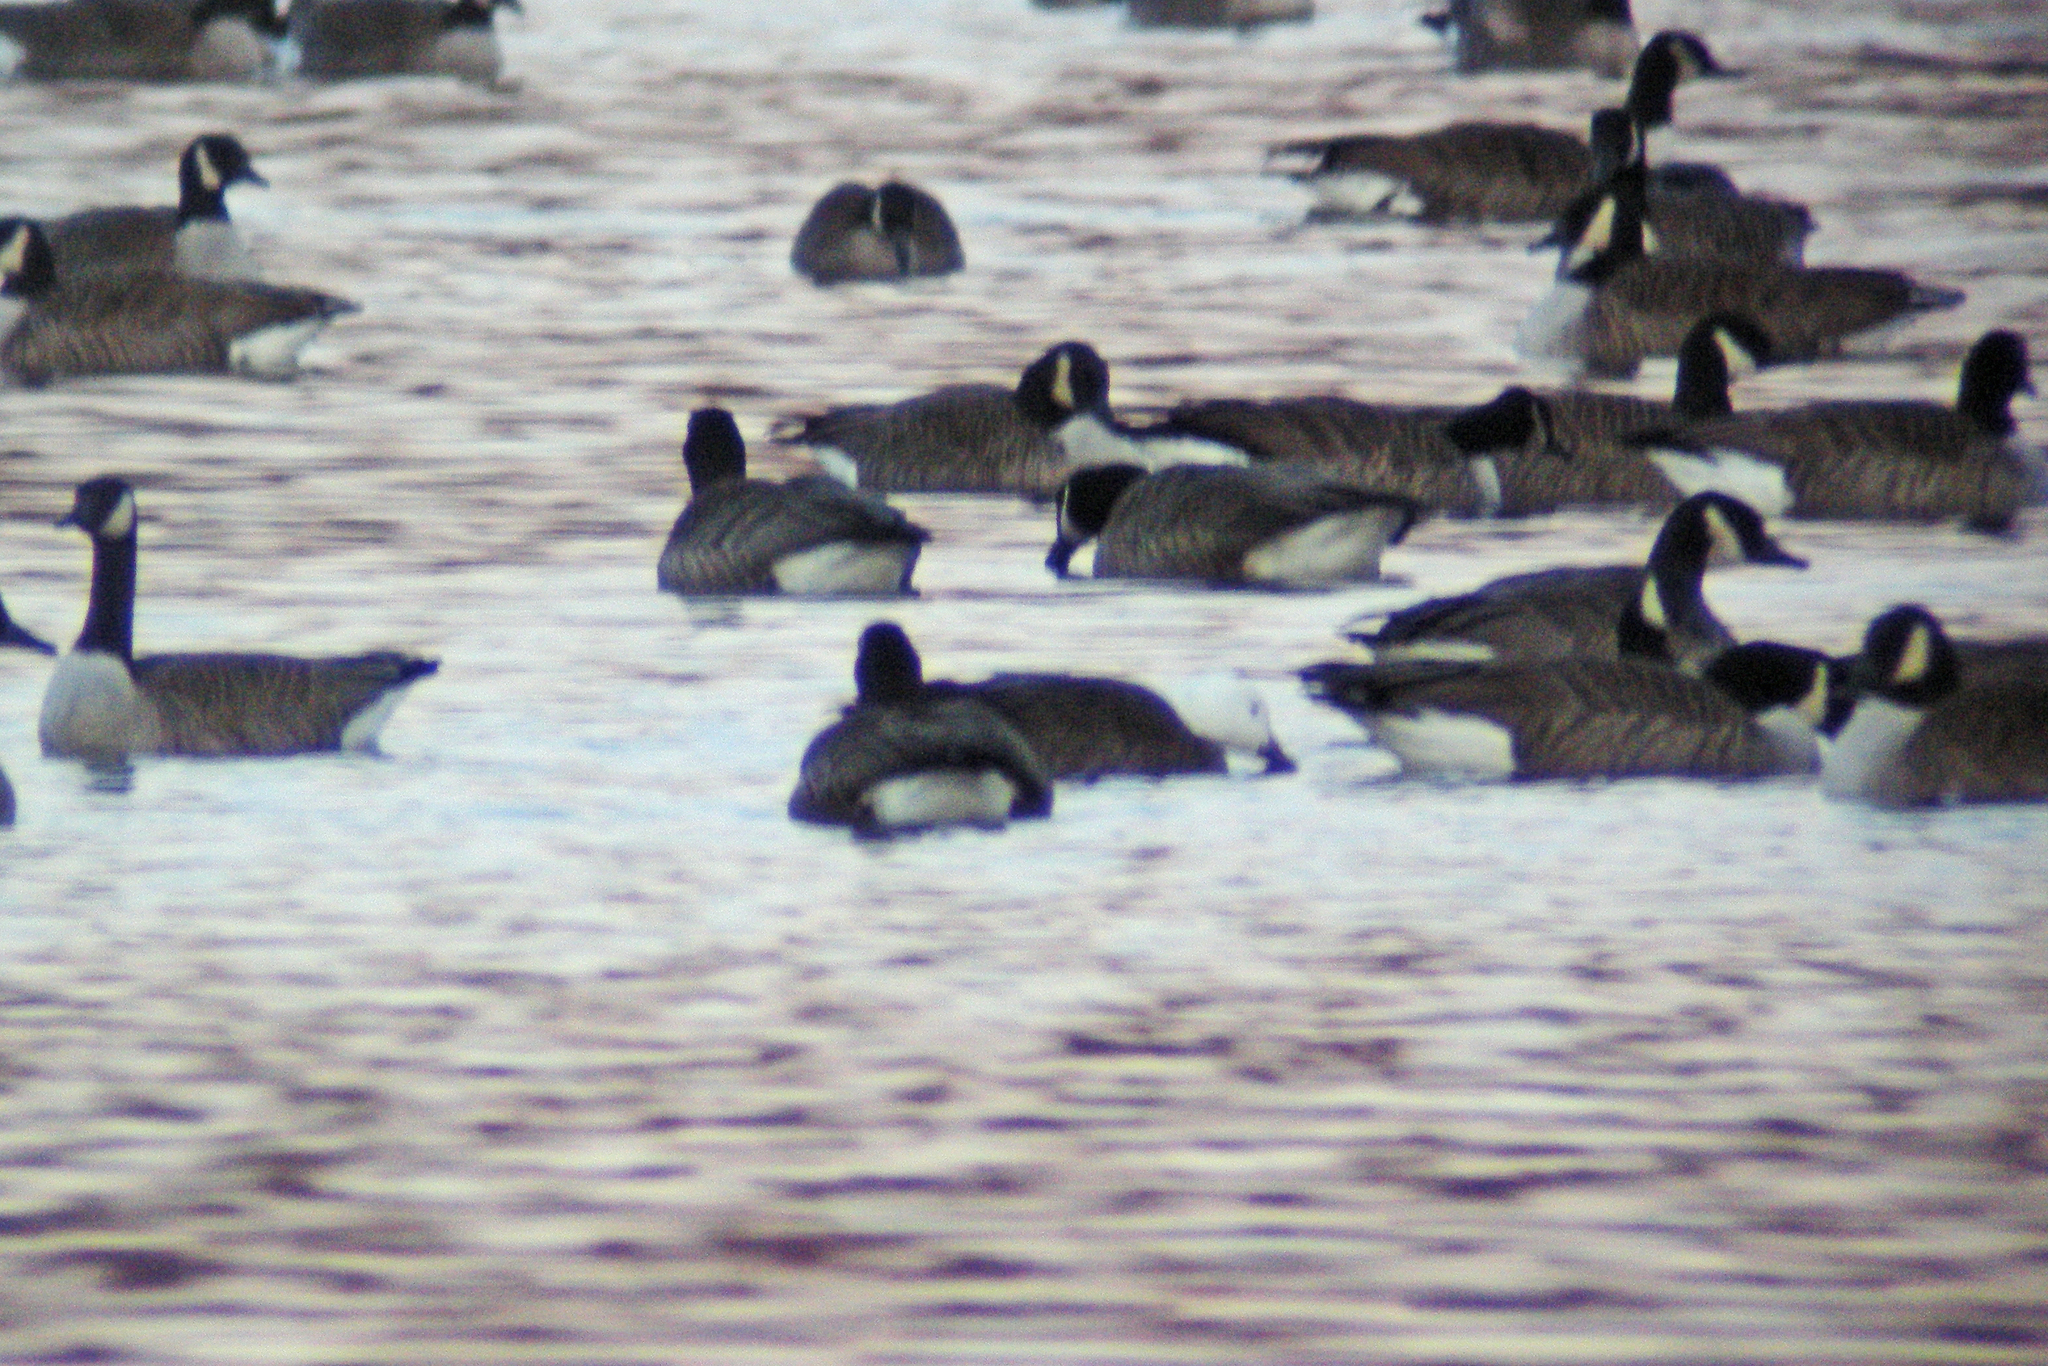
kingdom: Animalia
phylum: Chordata
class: Aves
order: Anseriformes
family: Anatidae
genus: Anser
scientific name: Anser caerulescens
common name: Snow goose
